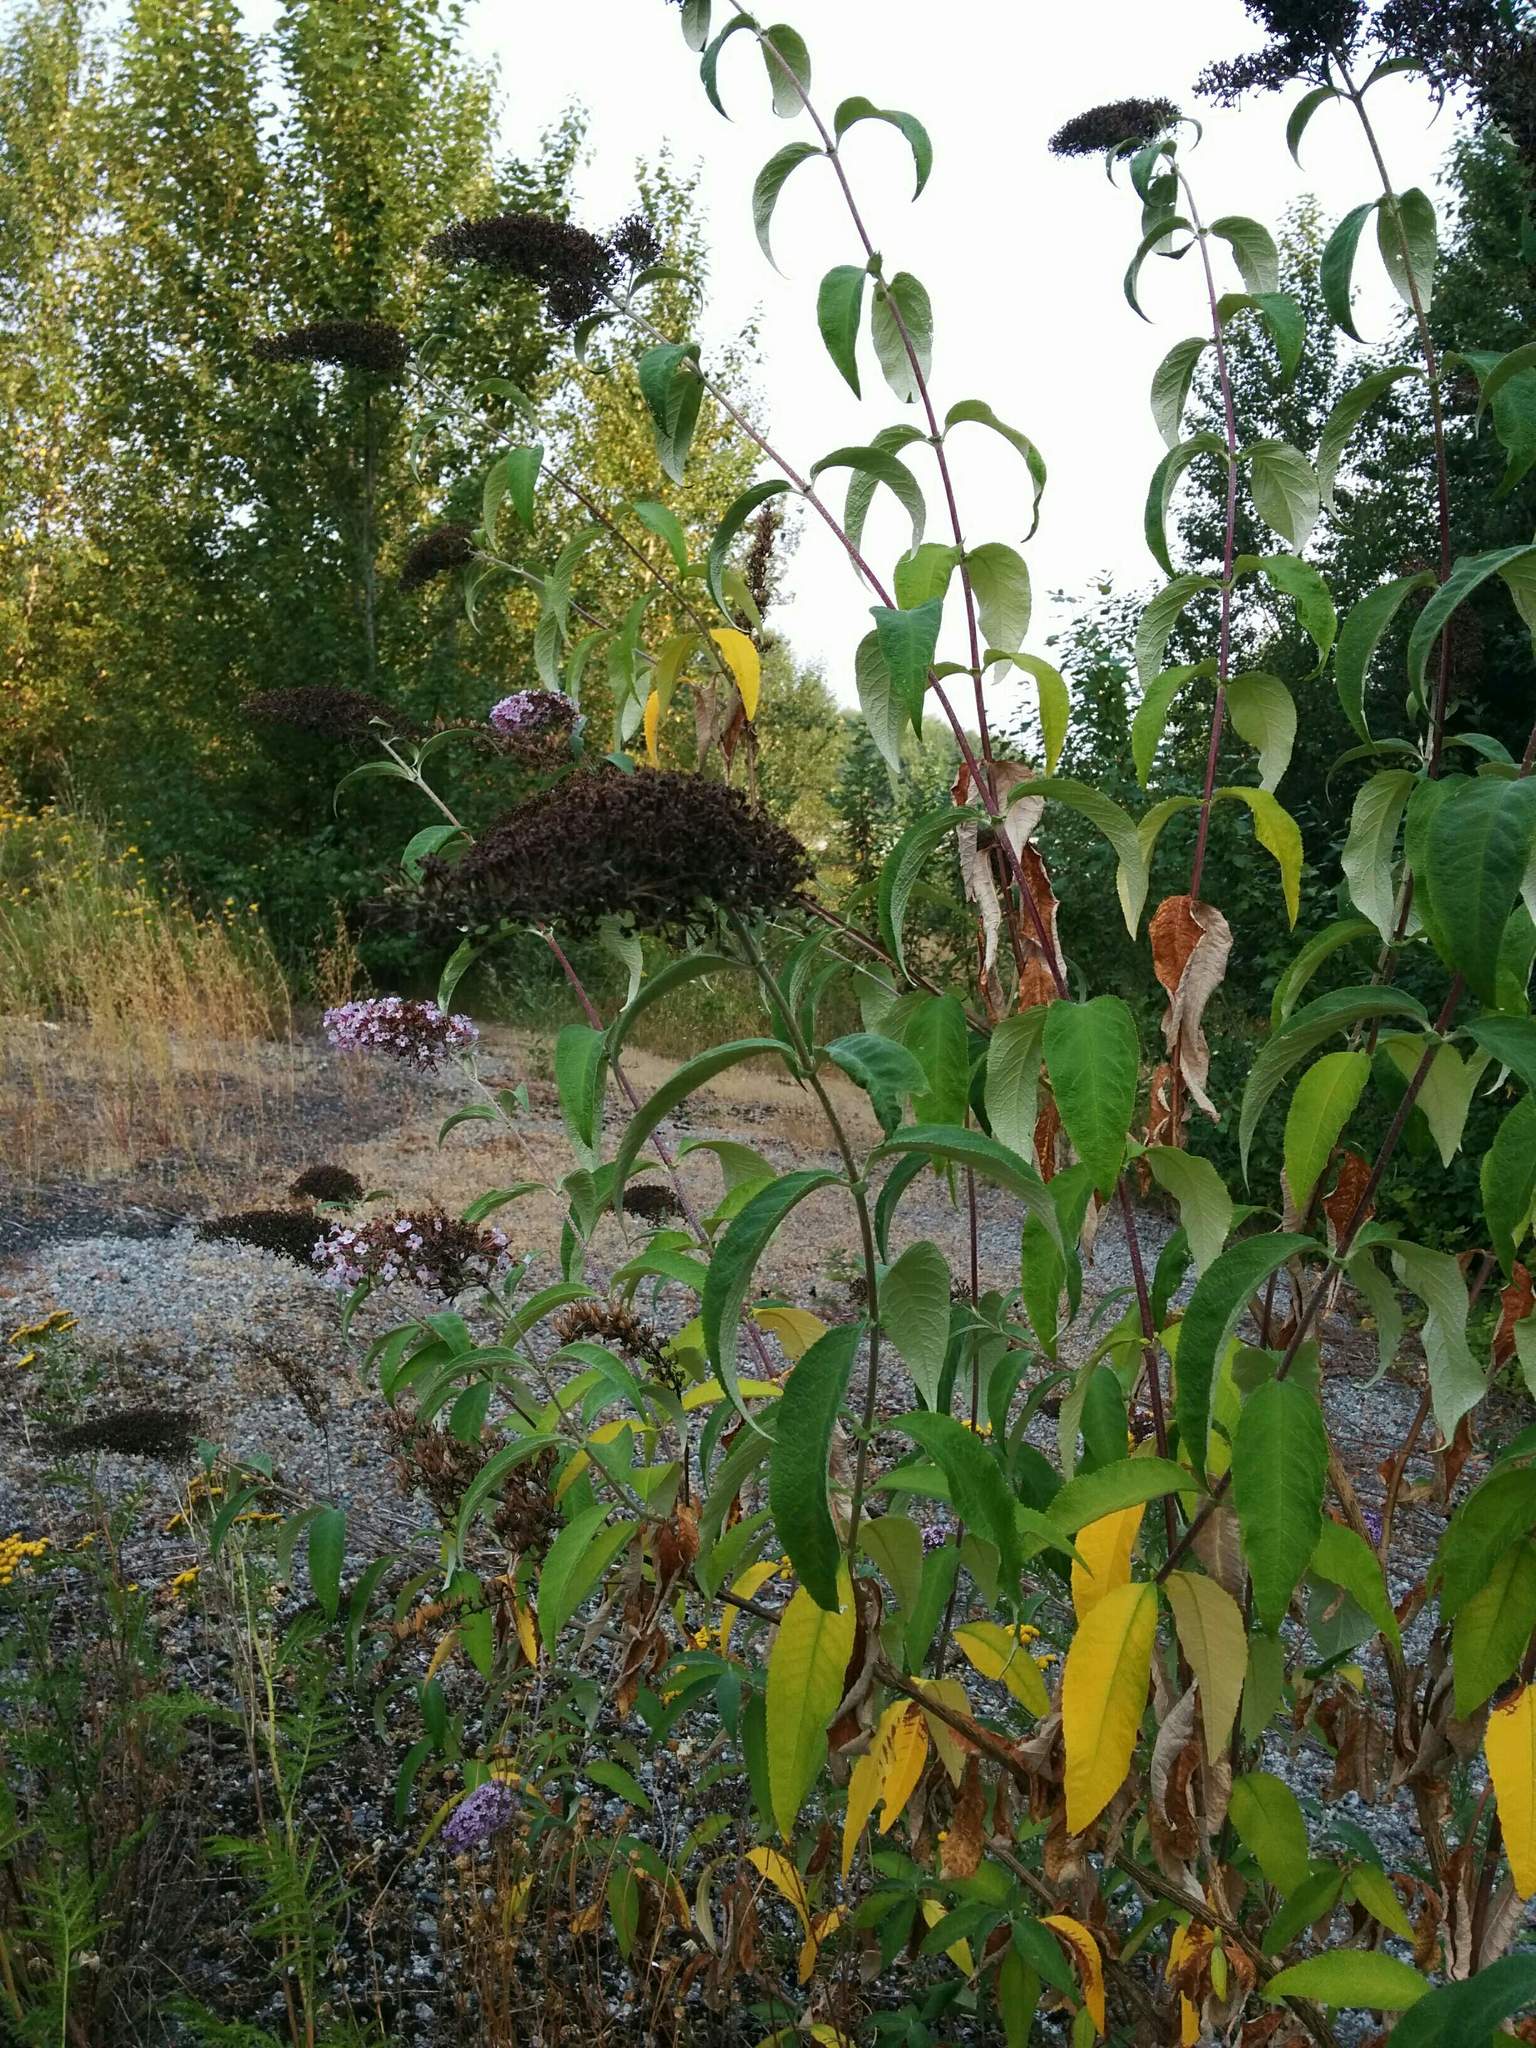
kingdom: Plantae
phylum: Tracheophyta
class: Magnoliopsida
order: Lamiales
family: Scrophulariaceae
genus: Buddleja
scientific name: Buddleja davidii
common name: Butterfly-bush
